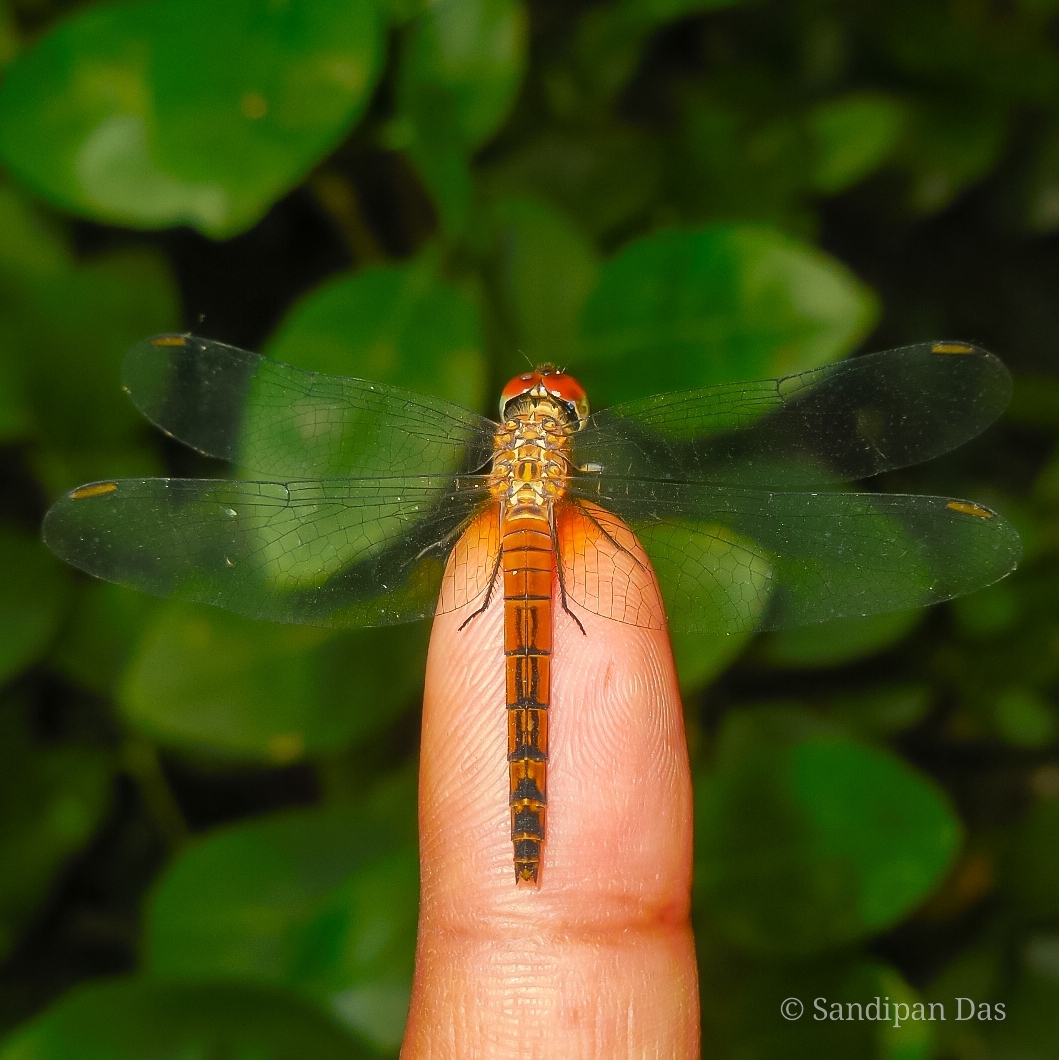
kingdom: Animalia
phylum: Arthropoda
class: Insecta
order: Odonata
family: Libellulidae
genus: Brachydiplax
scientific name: Brachydiplax chalybea
